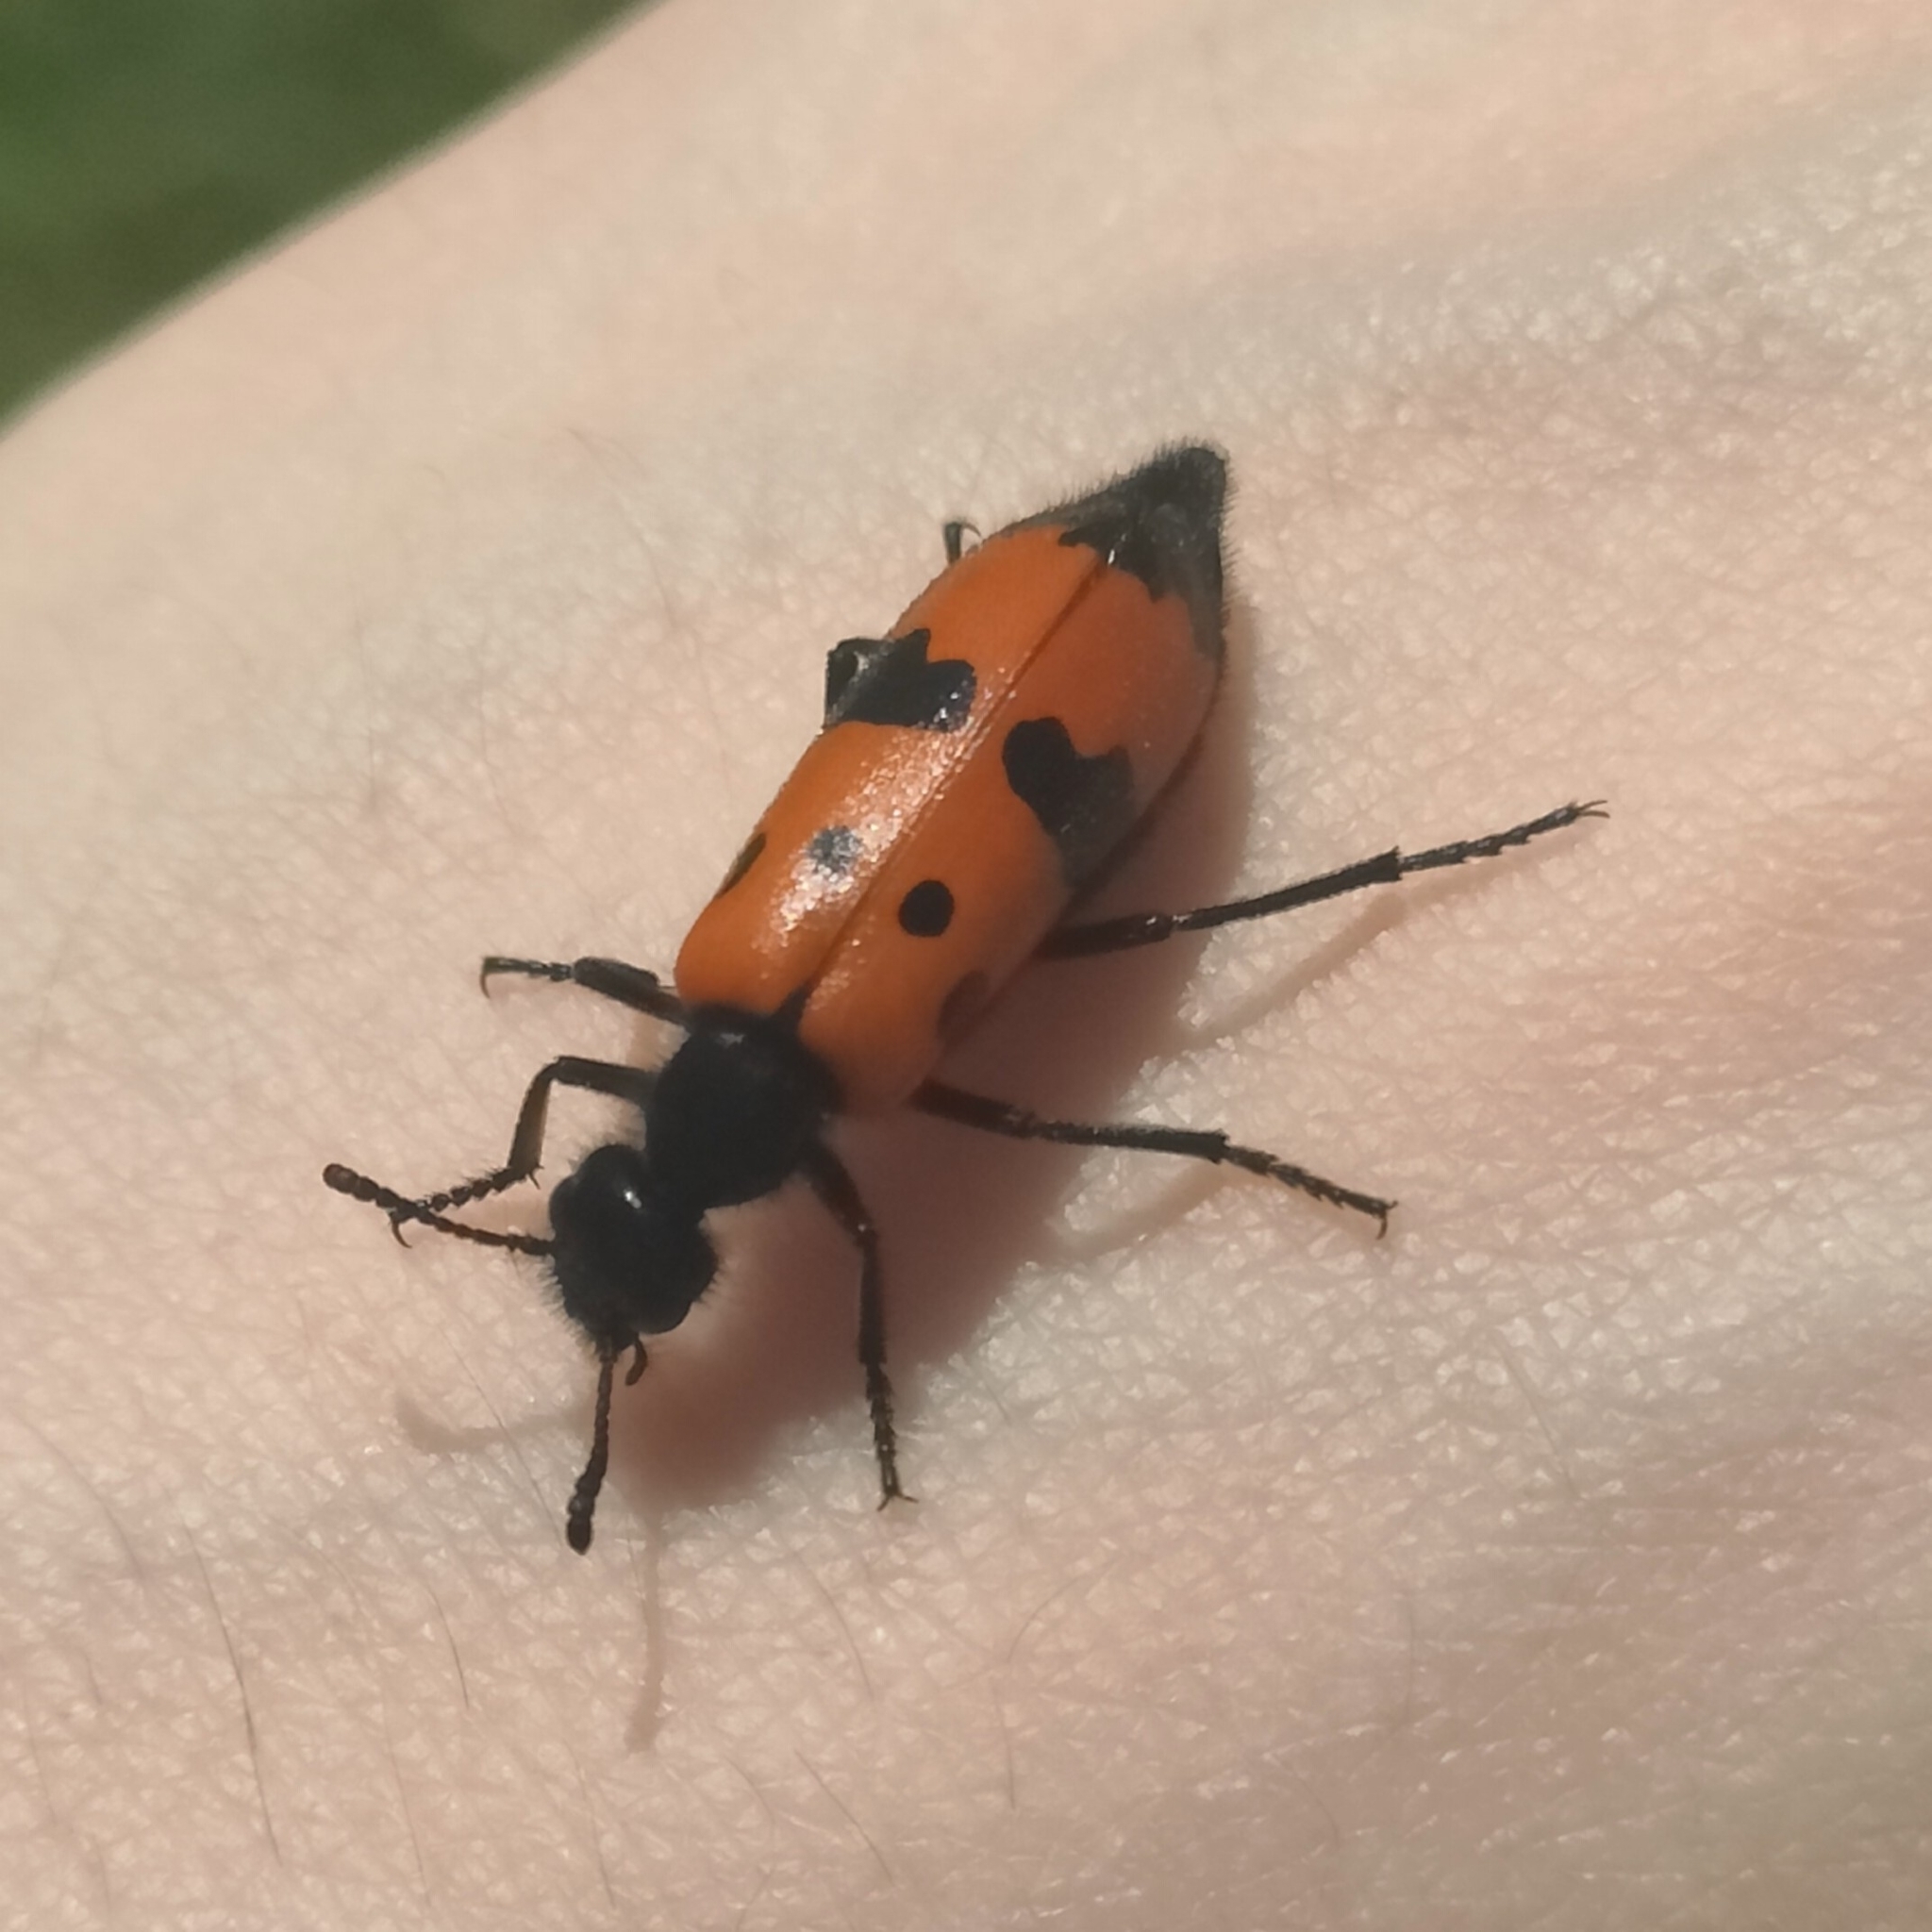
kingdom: Animalia
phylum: Arthropoda
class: Insecta
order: Coleoptera
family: Meloidae
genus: Mylabris
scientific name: Mylabris quadripunctata
